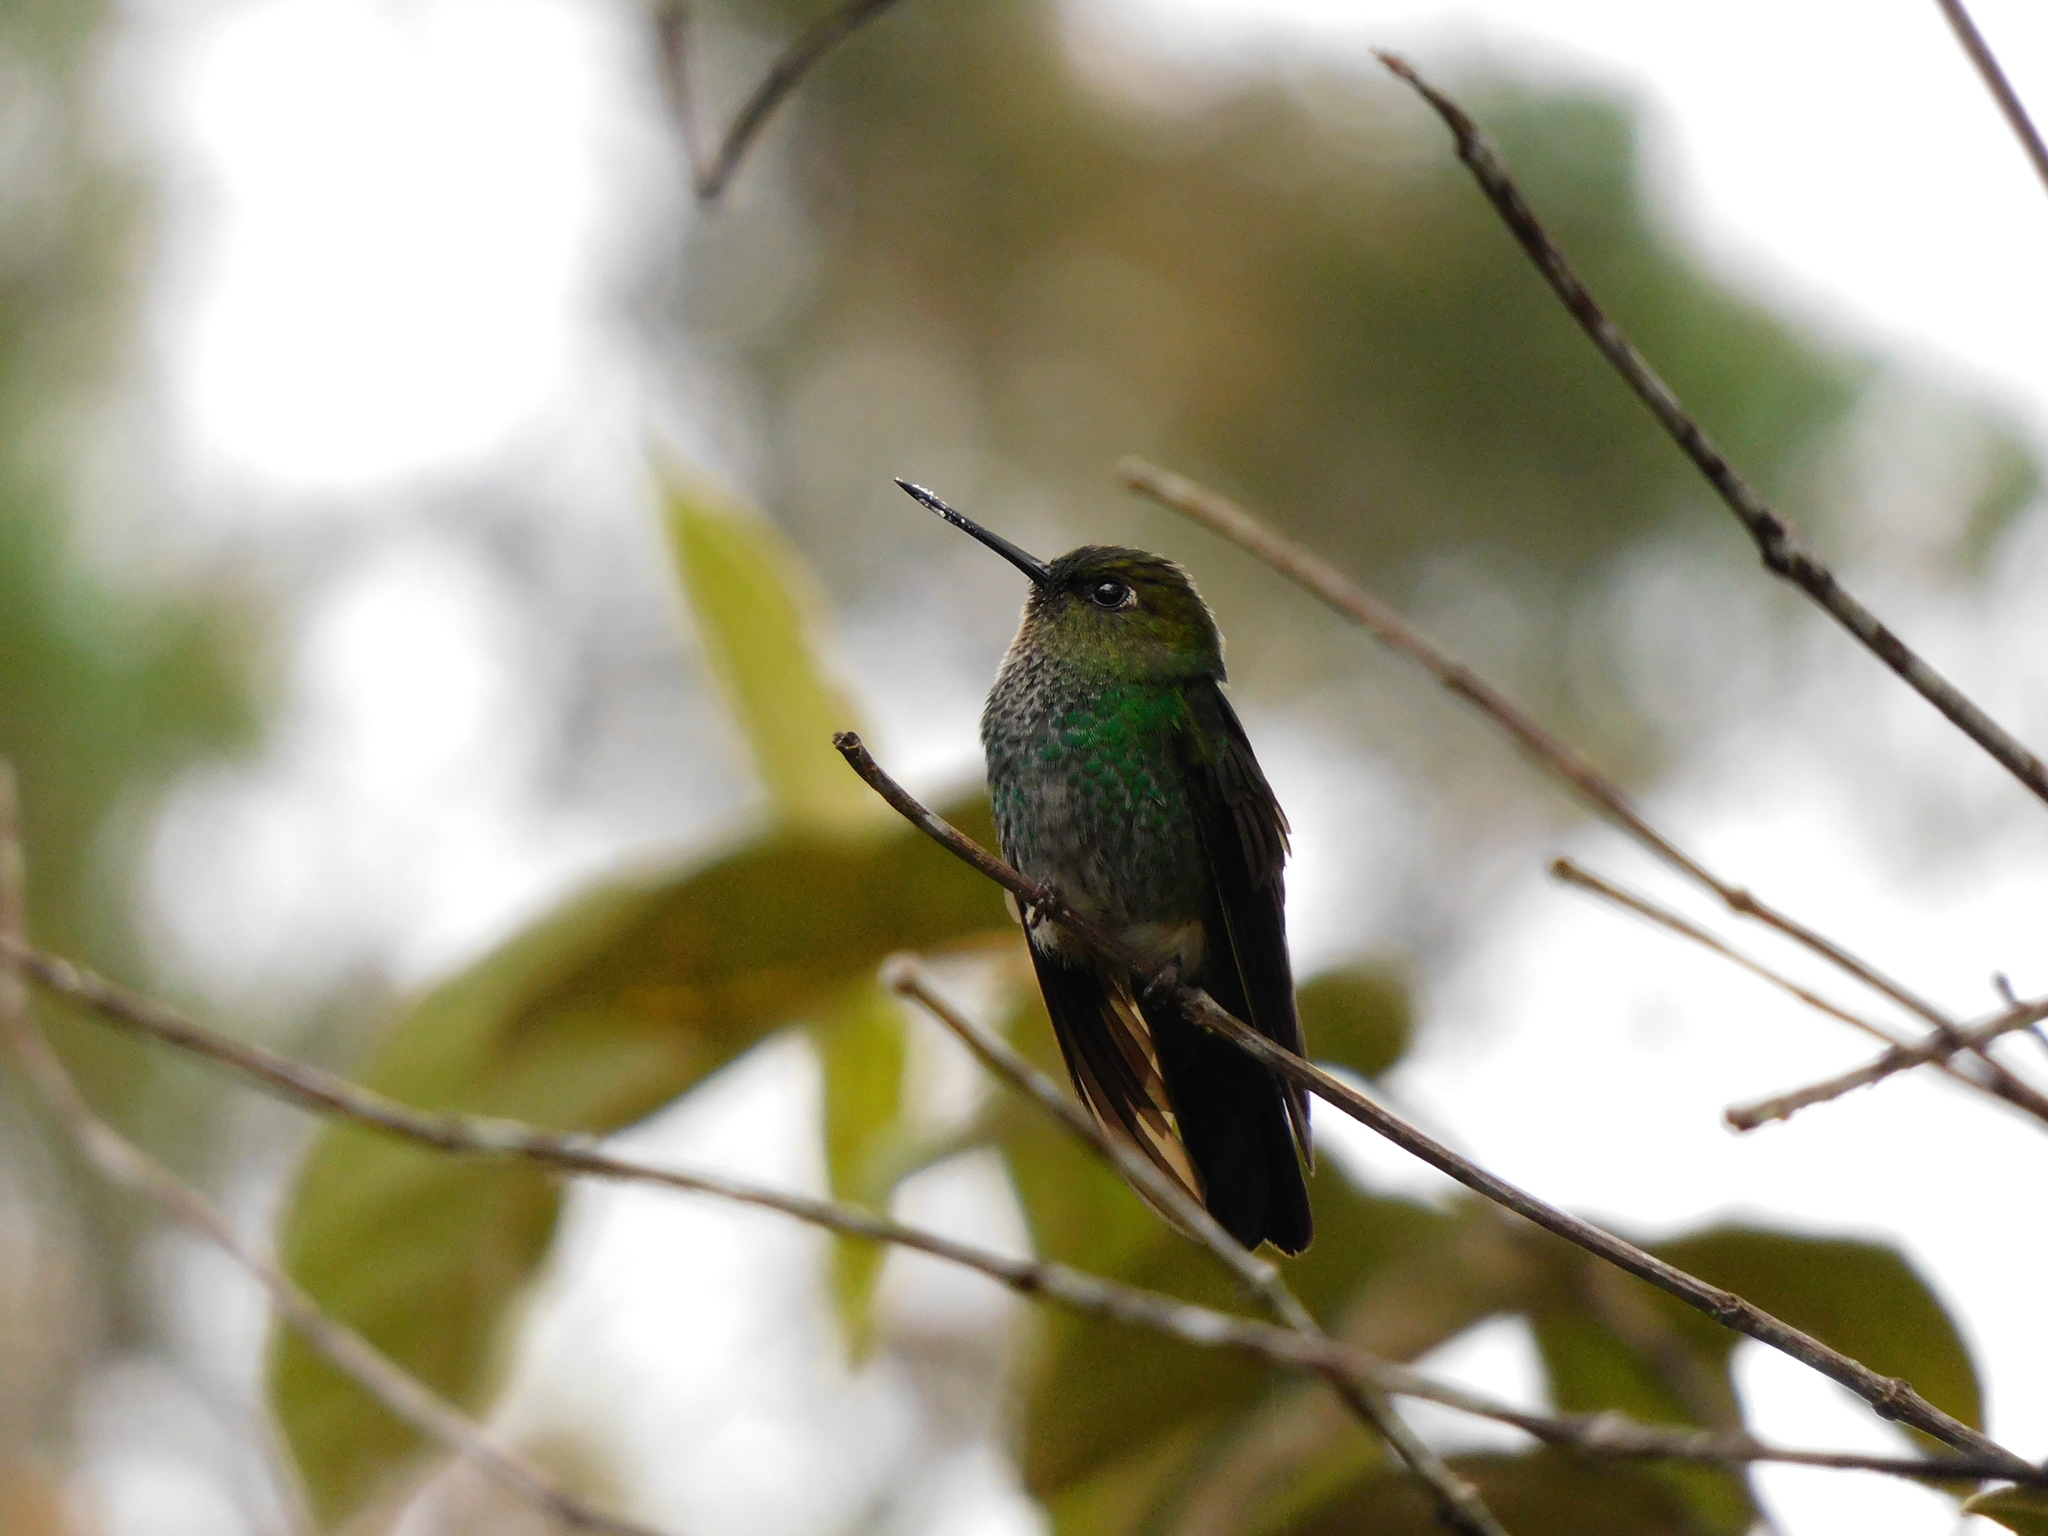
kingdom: Animalia
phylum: Chordata
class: Aves
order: Apodiformes
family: Trochilidae
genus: Haplophaedia
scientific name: Haplophaedia aureliae
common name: Greenish puffleg
